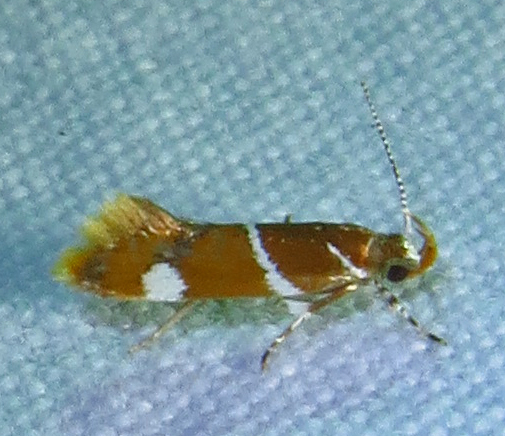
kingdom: Animalia
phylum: Arthropoda
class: Insecta
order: Lepidoptera
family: Oecophoridae
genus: Promalactis
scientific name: Promalactis suzukiella
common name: Moth
